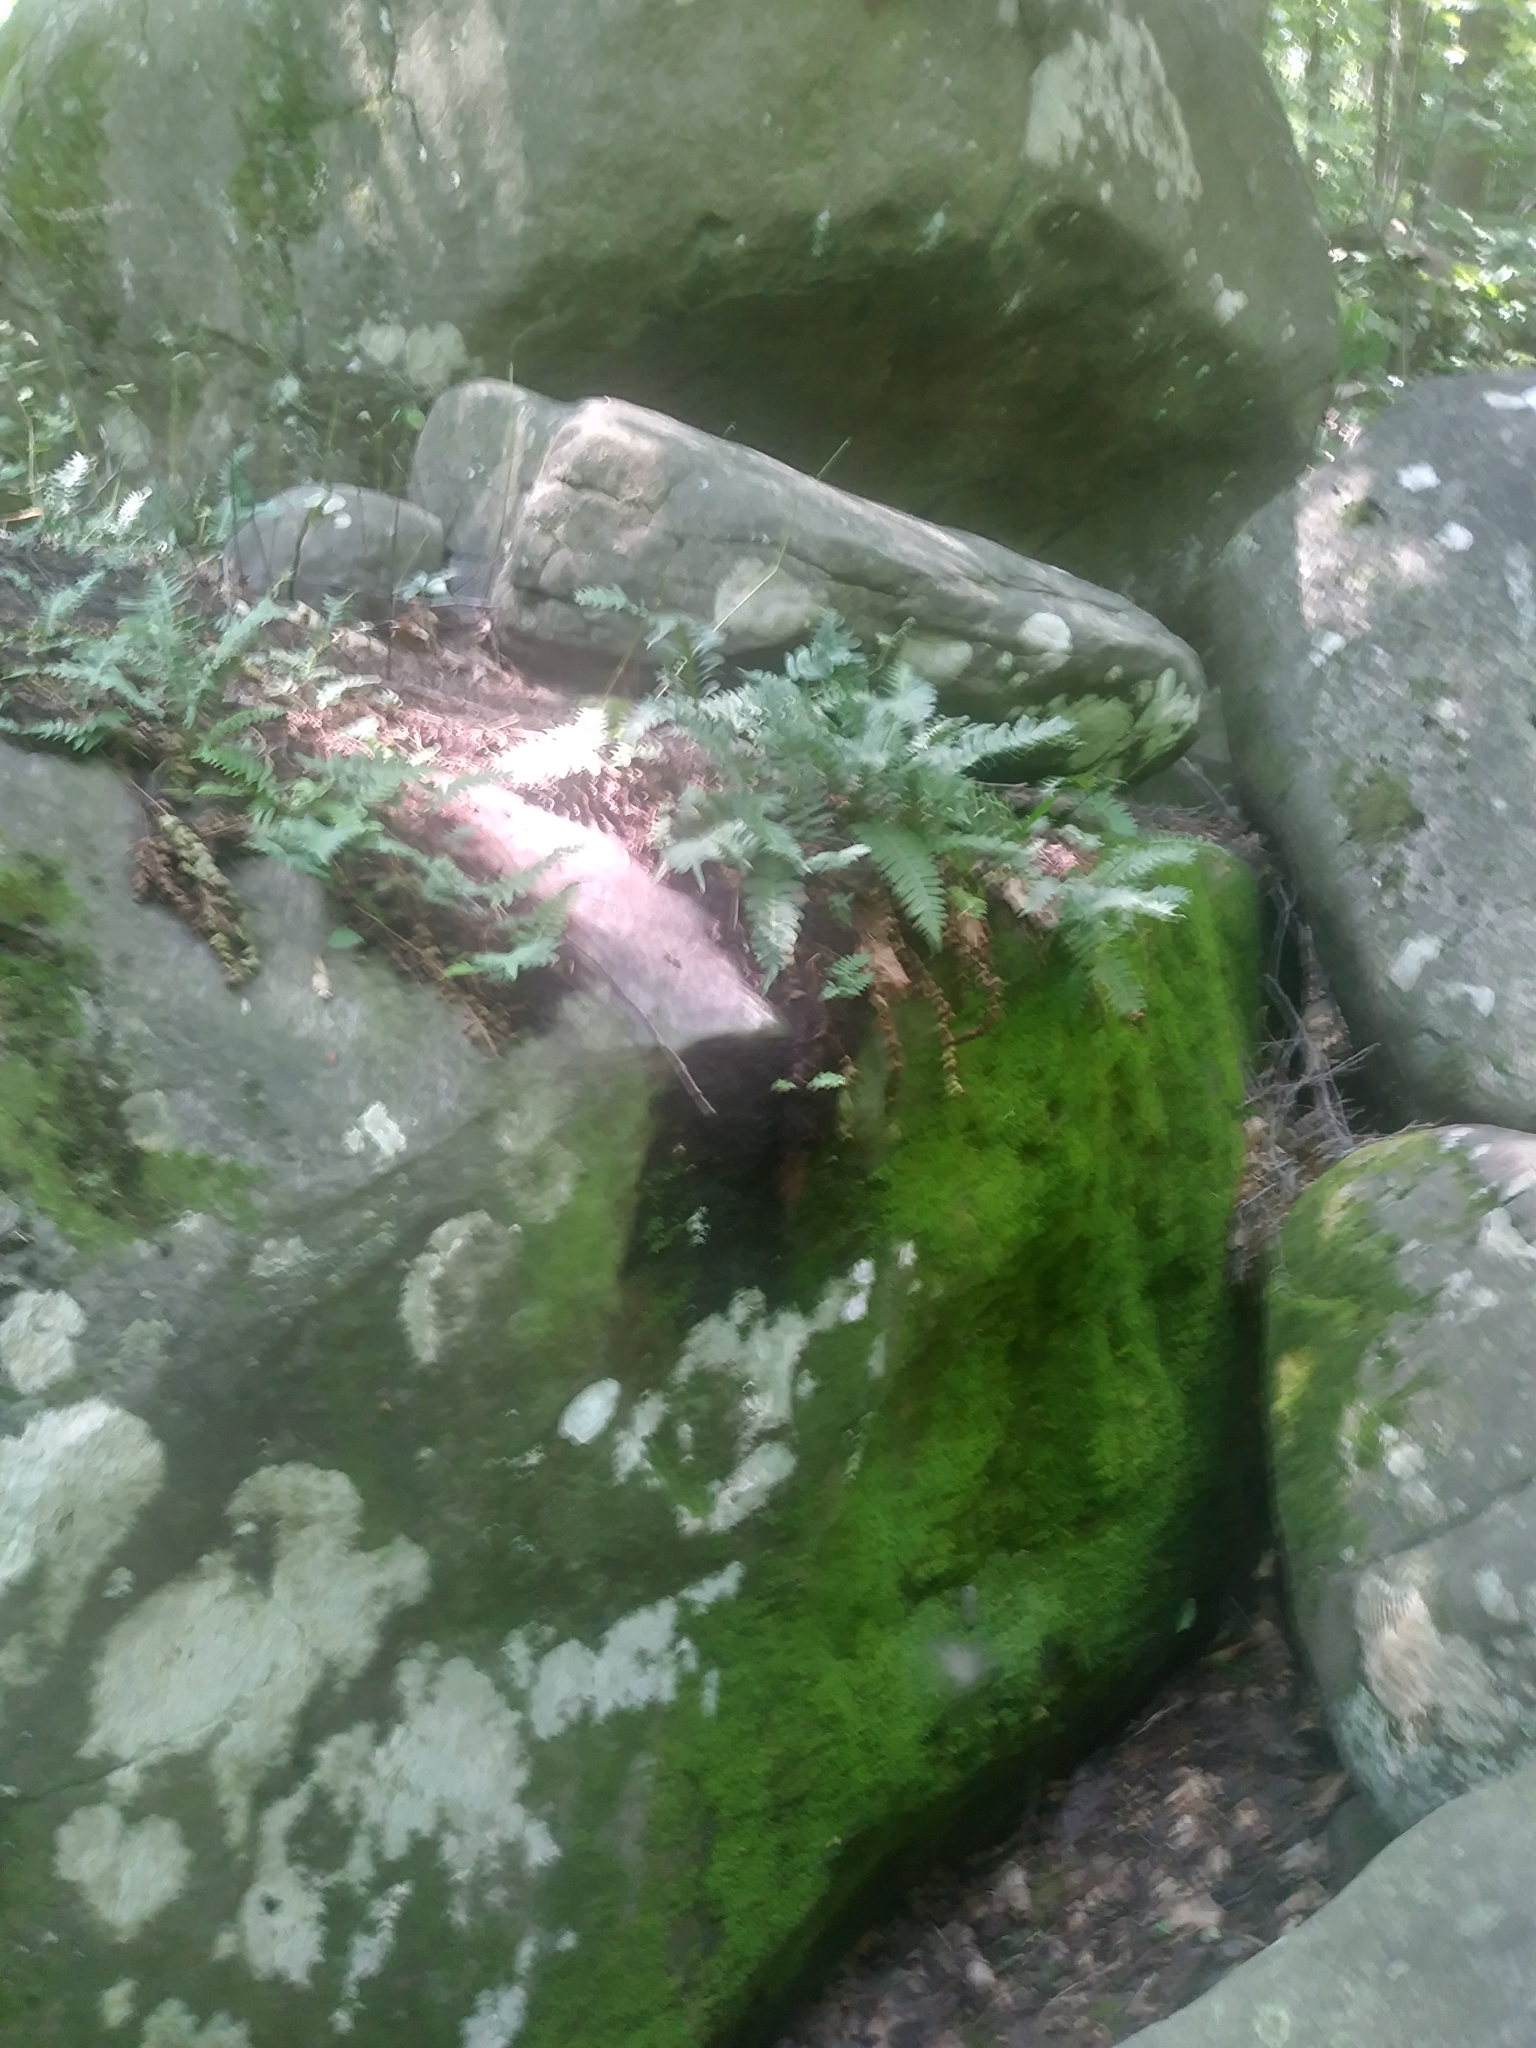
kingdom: Plantae
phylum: Tracheophyta
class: Polypodiopsida
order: Polypodiales
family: Polypodiaceae
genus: Polypodium
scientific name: Polypodium virginianum
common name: American wall fern
